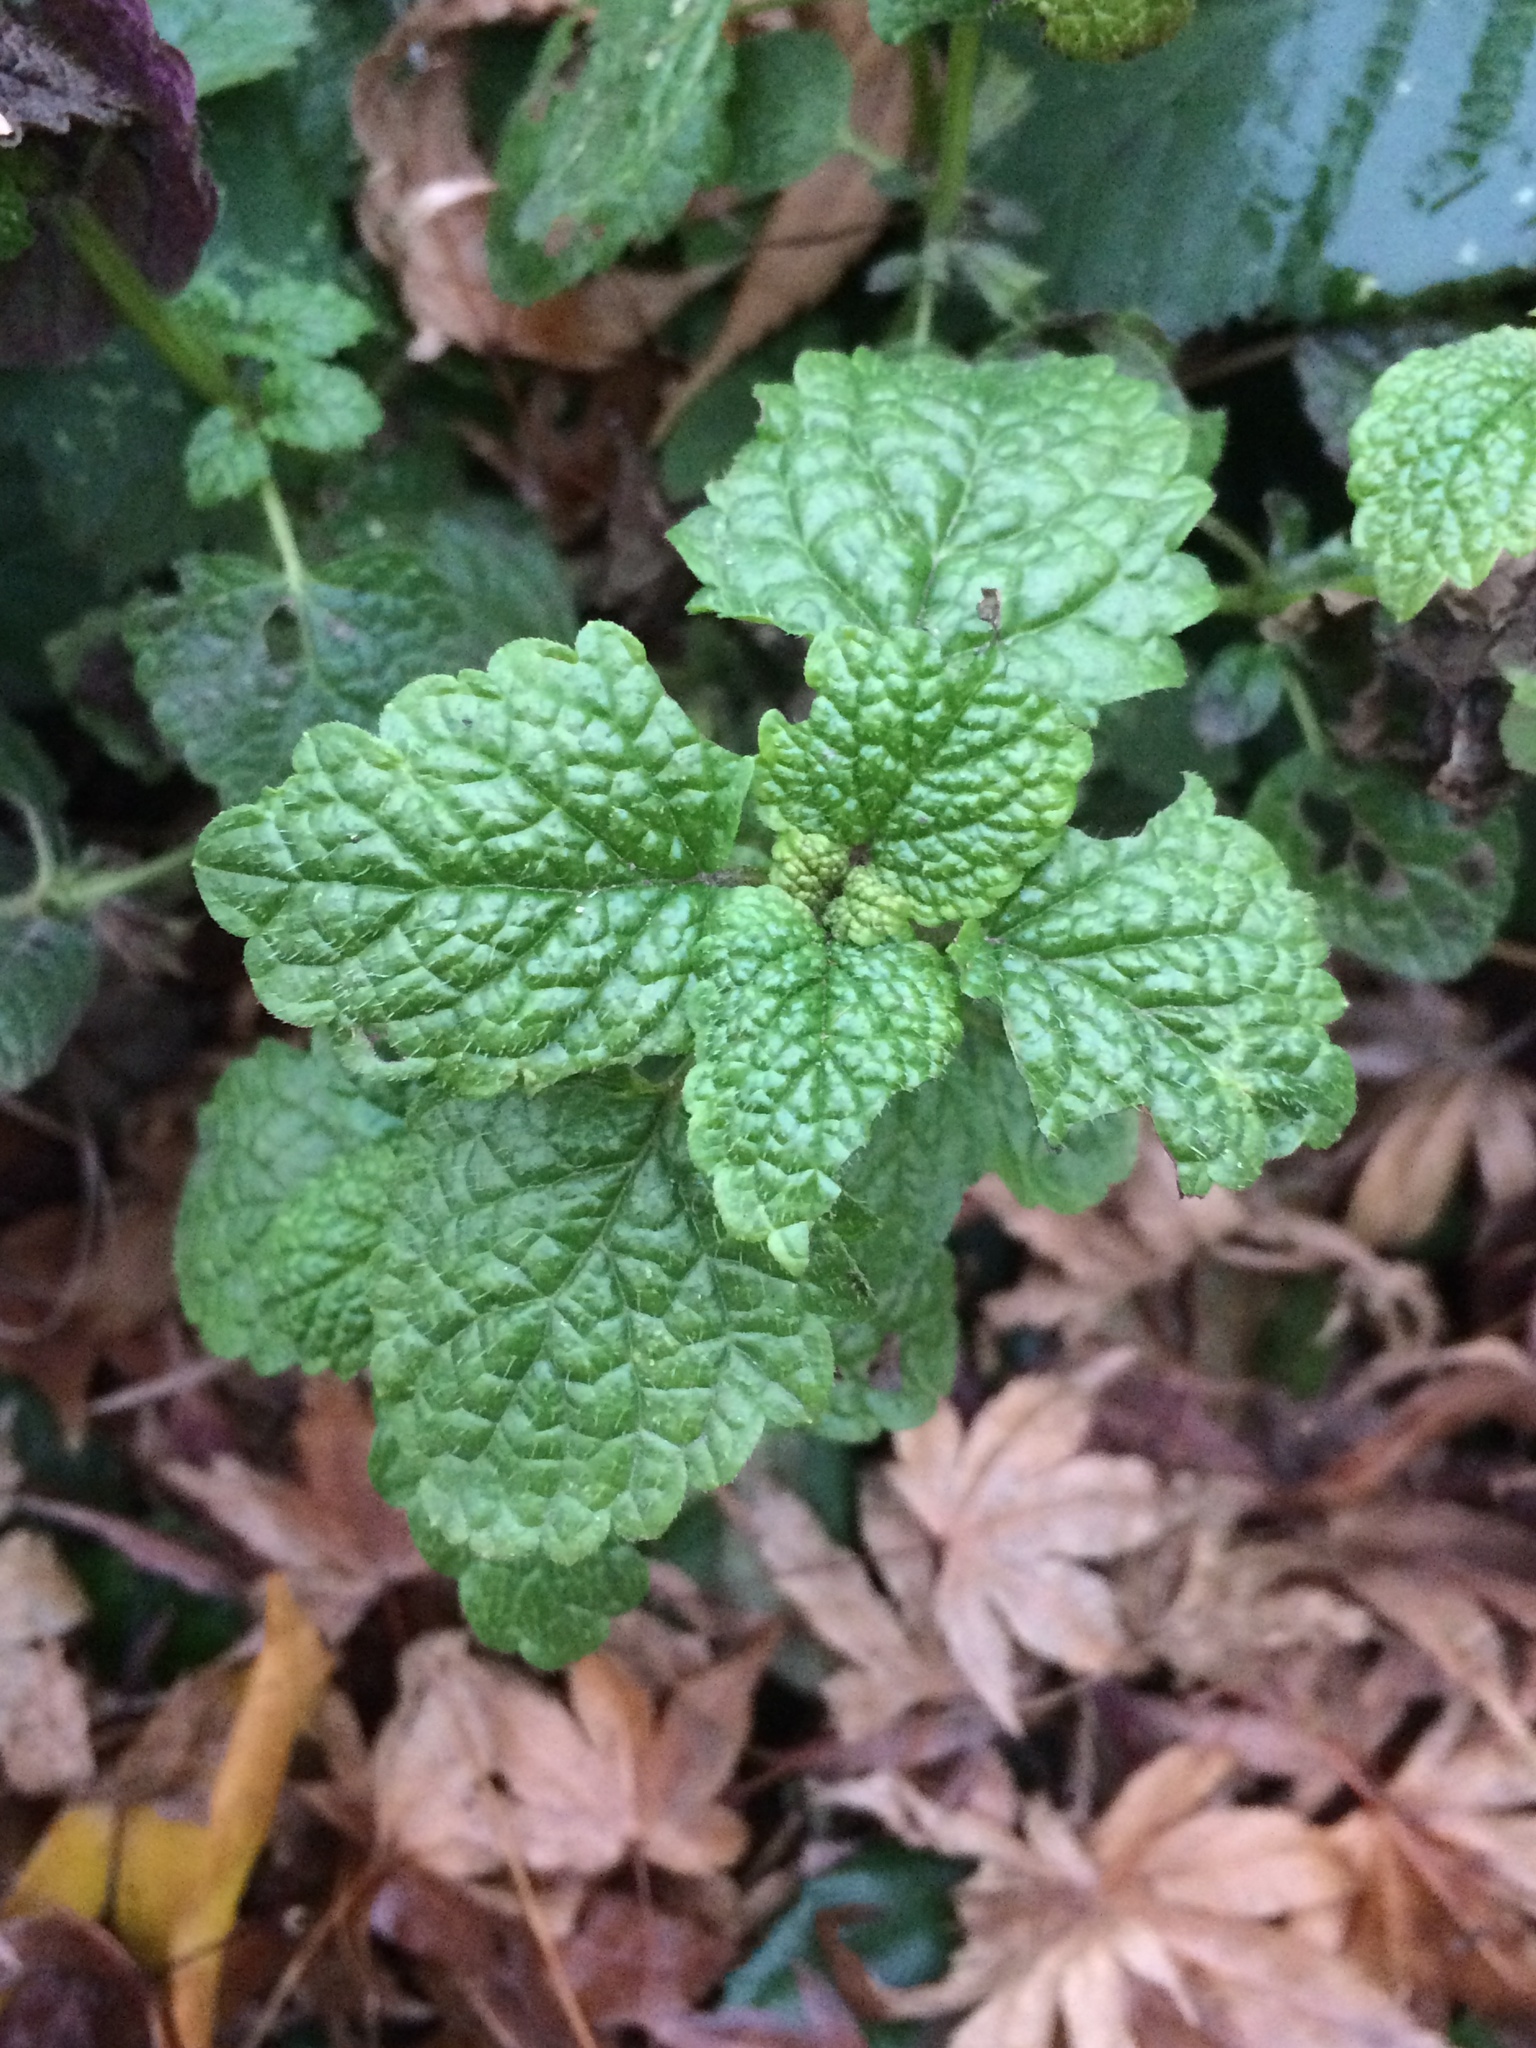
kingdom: Plantae
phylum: Tracheophyta
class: Magnoliopsida
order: Lamiales
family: Lamiaceae
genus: Melissa
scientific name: Melissa officinalis
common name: Balm
